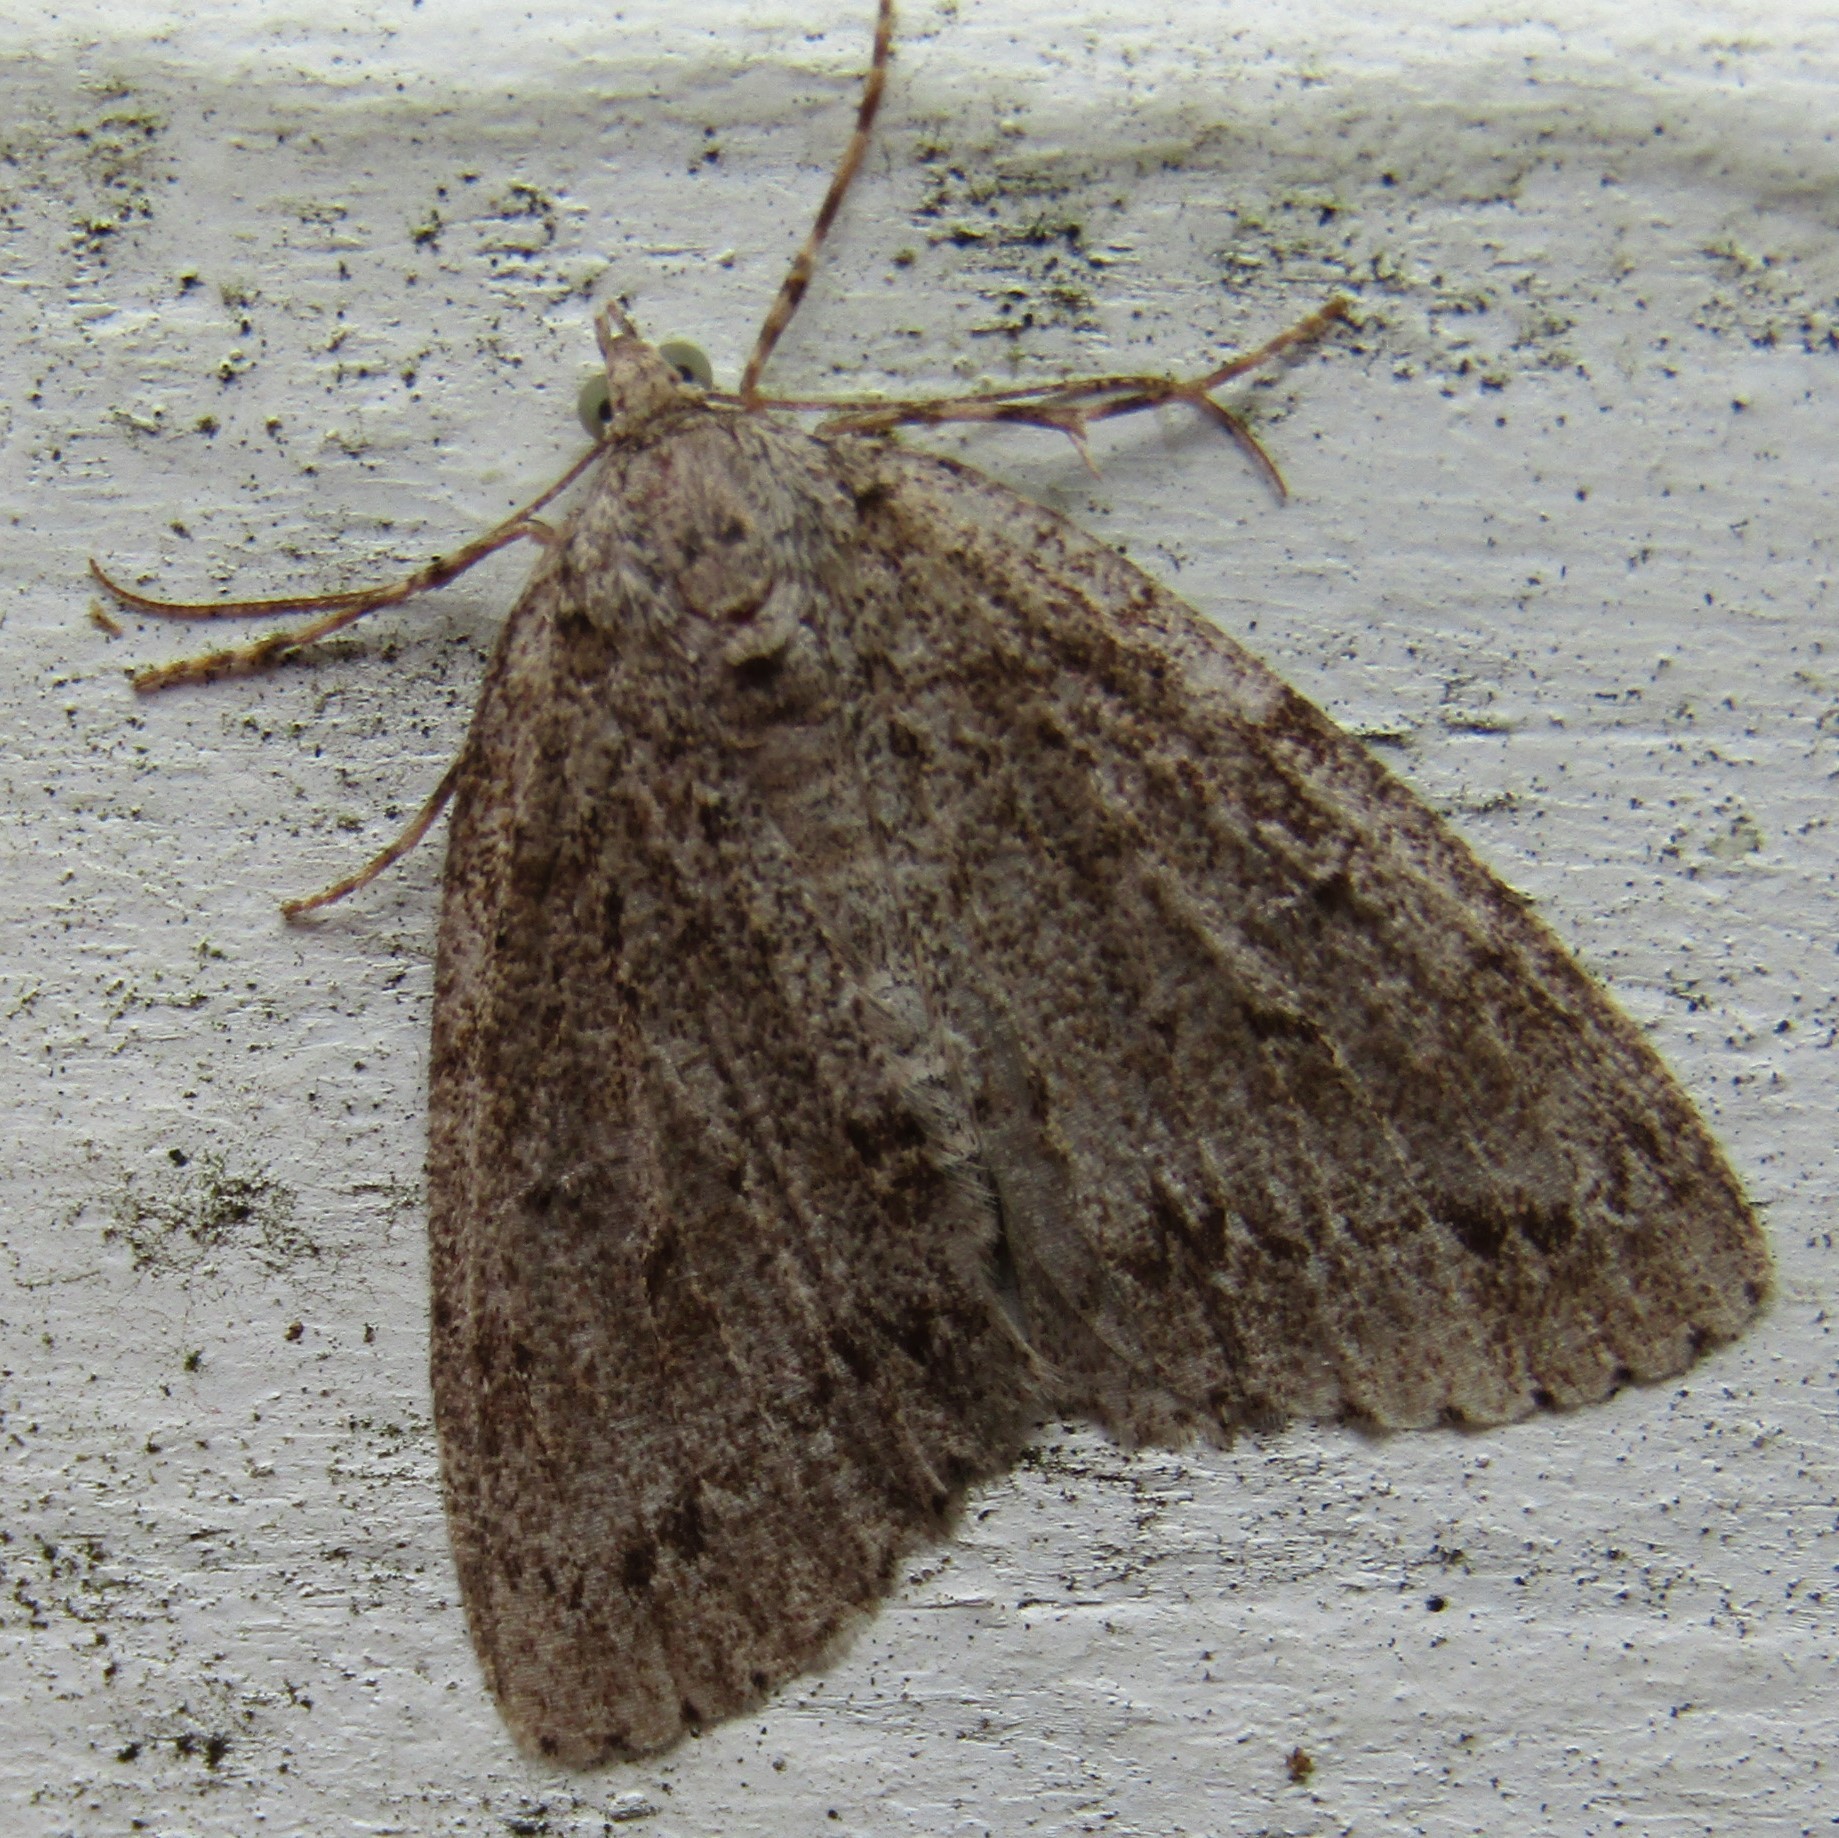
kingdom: Animalia
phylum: Arthropoda
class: Insecta
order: Lepidoptera
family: Geometridae
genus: Pseudocoremia
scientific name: Pseudocoremia fenerata
